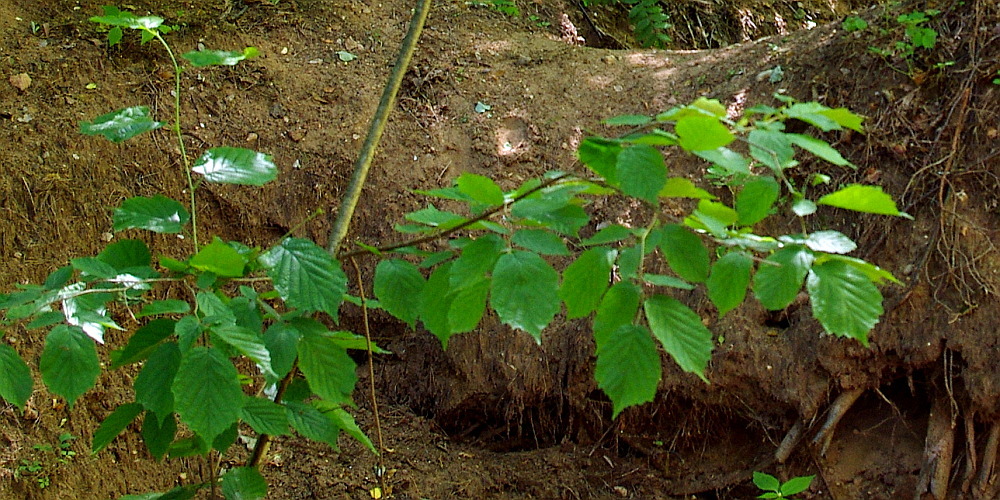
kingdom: Plantae
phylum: Tracheophyta
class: Magnoliopsida
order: Fagales
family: Betulaceae
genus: Corylus
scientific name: Corylus avellana
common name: European hazel
